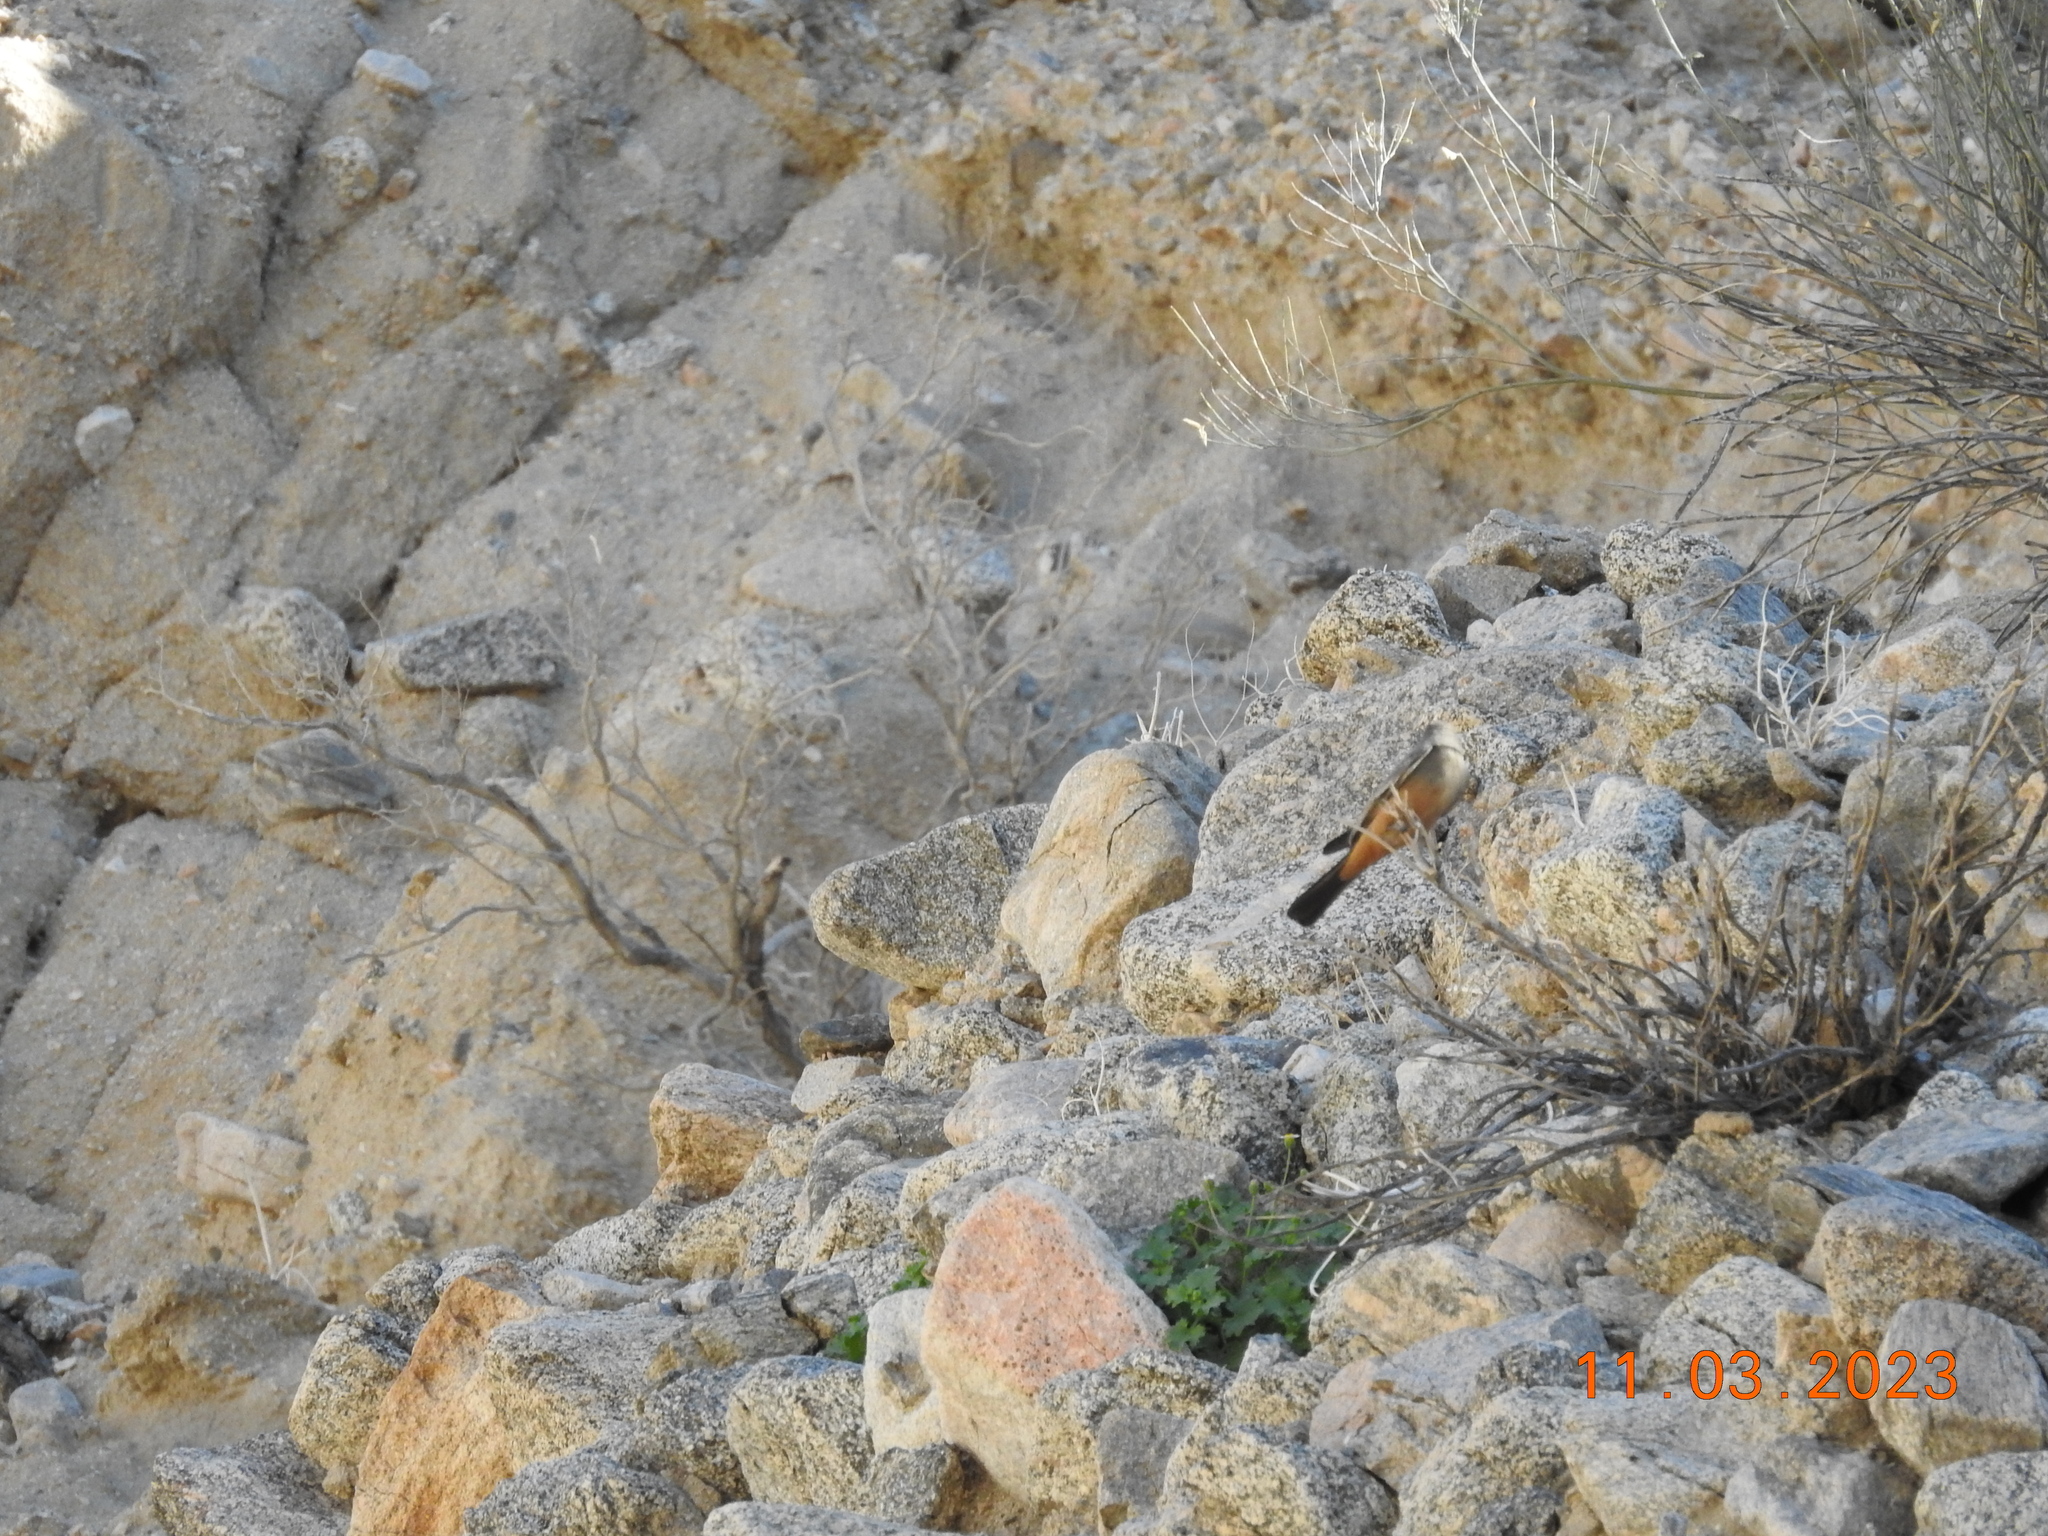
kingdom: Animalia
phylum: Chordata
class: Aves
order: Passeriformes
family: Tyrannidae
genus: Sayornis
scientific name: Sayornis saya
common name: Say's phoebe
